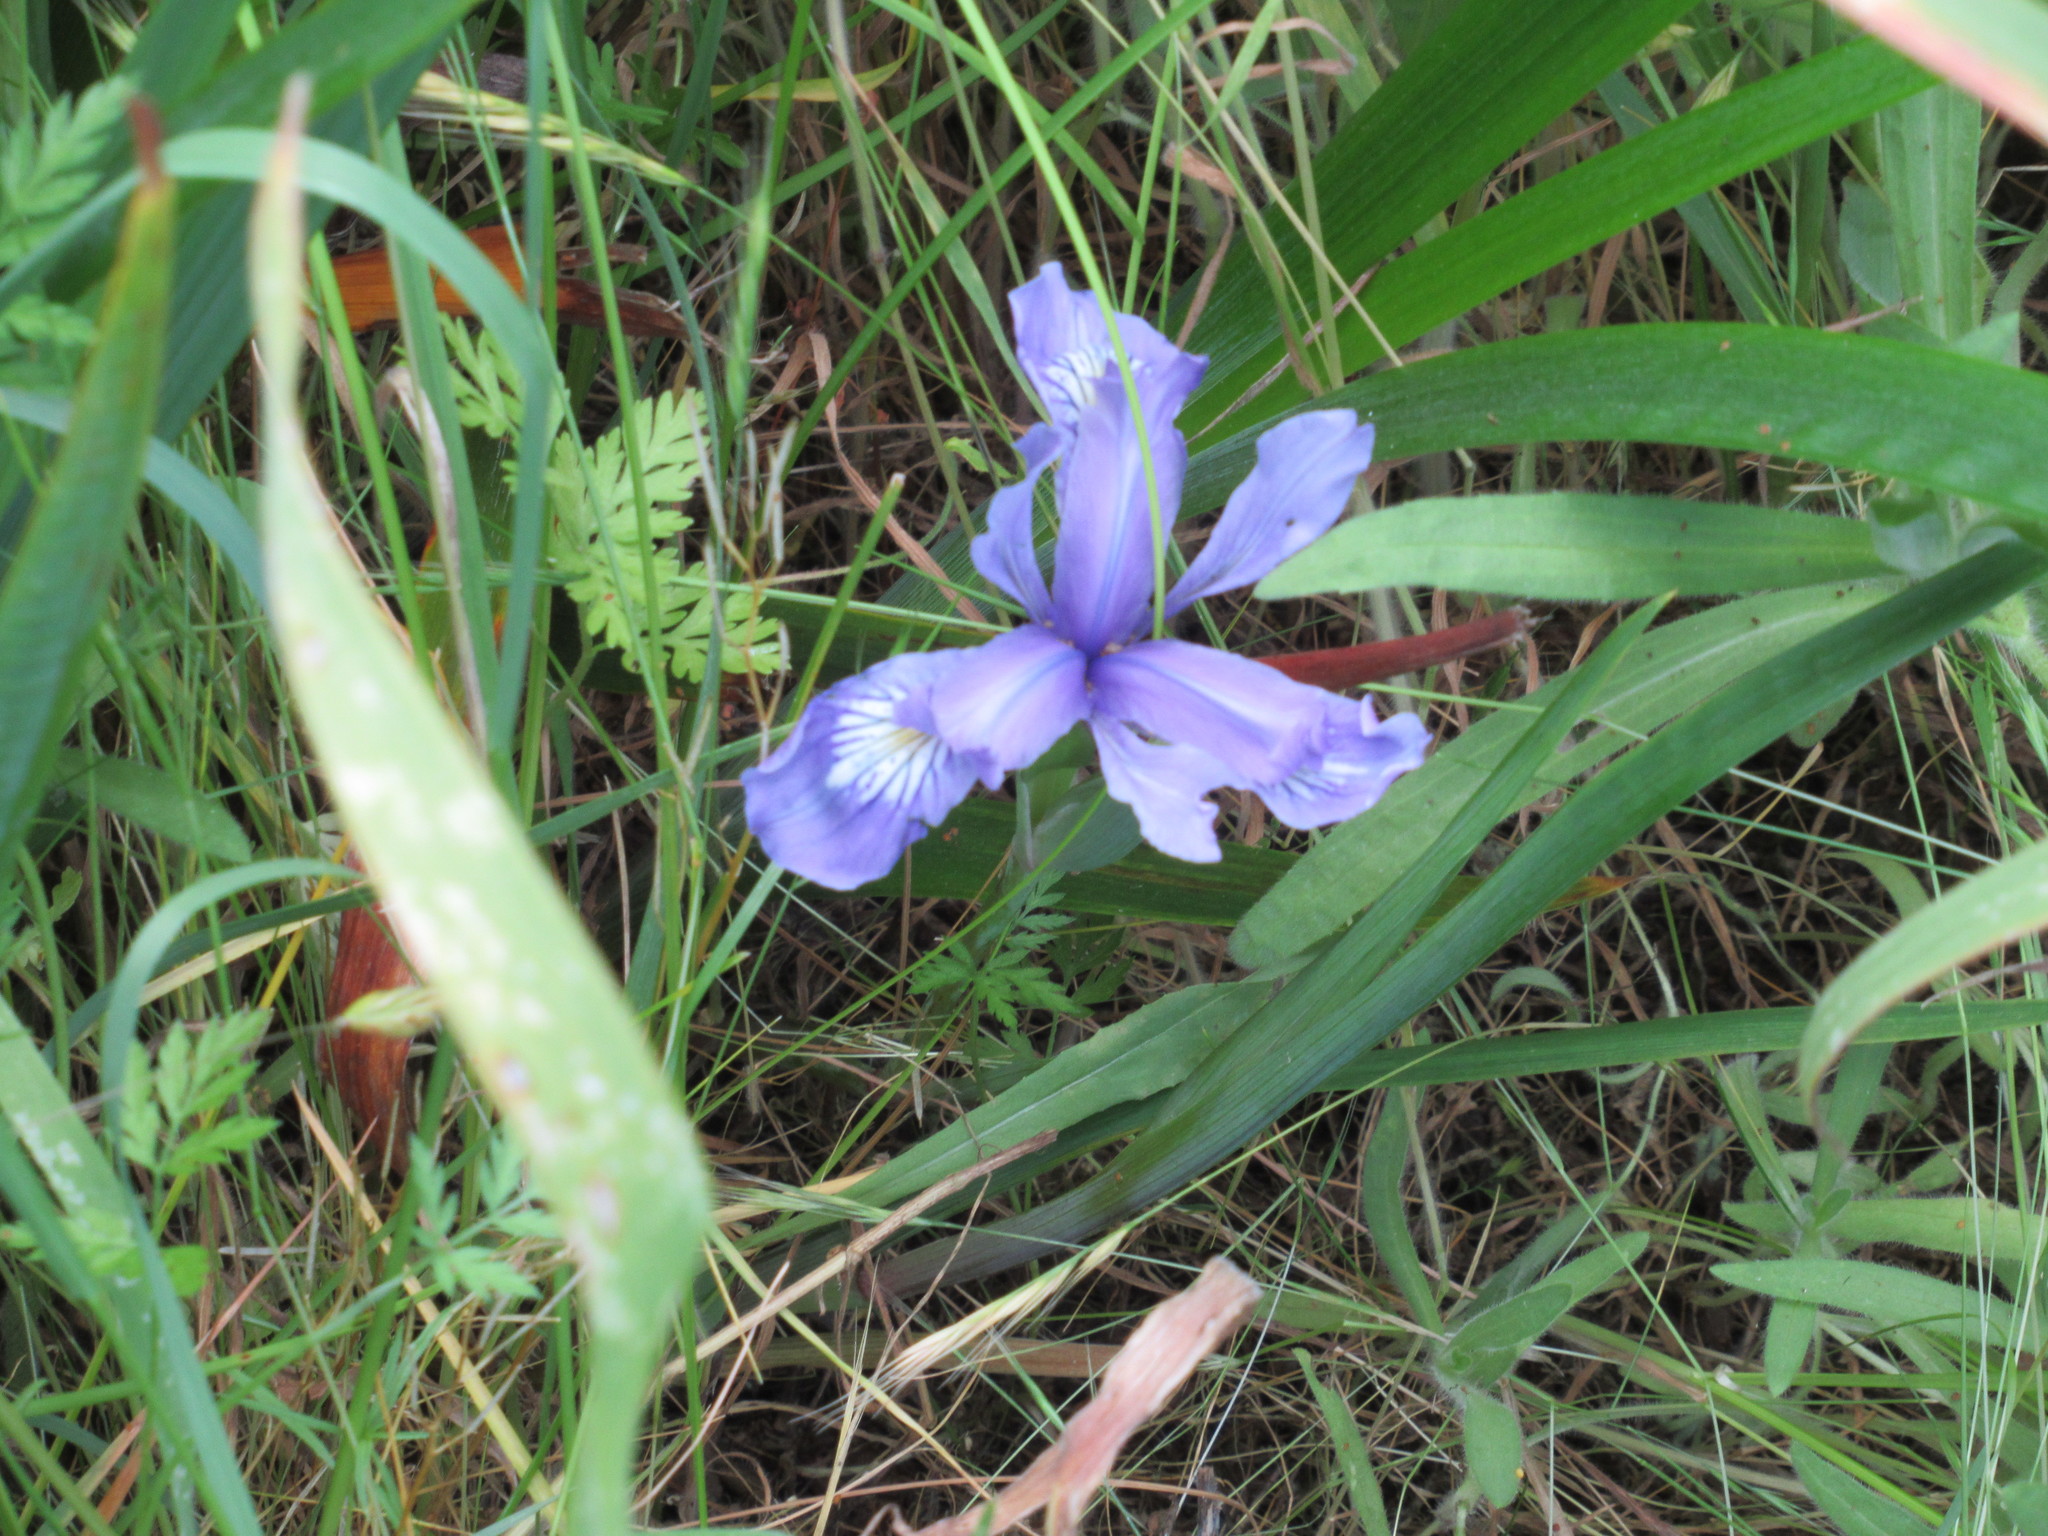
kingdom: Plantae
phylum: Tracheophyta
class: Liliopsida
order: Asparagales
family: Iridaceae
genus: Iris
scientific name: Iris douglasiana
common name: Marin iris
